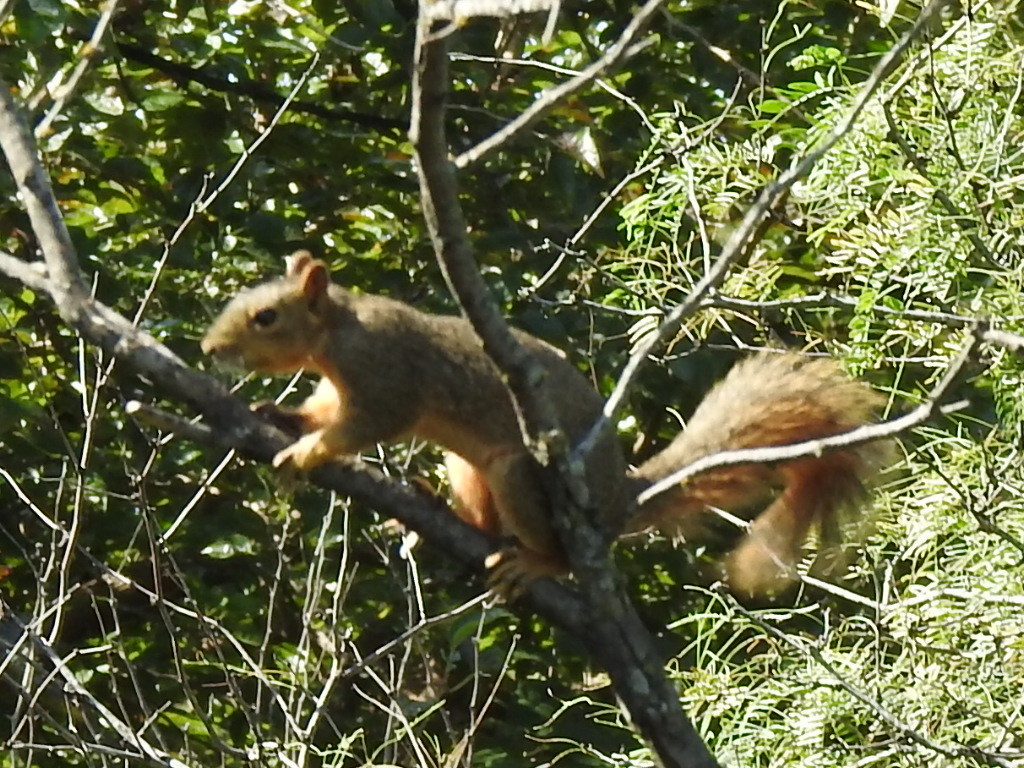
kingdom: Animalia
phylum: Chordata
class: Mammalia
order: Rodentia
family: Sciuridae
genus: Sciurus
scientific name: Sciurus niger
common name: Fox squirrel
